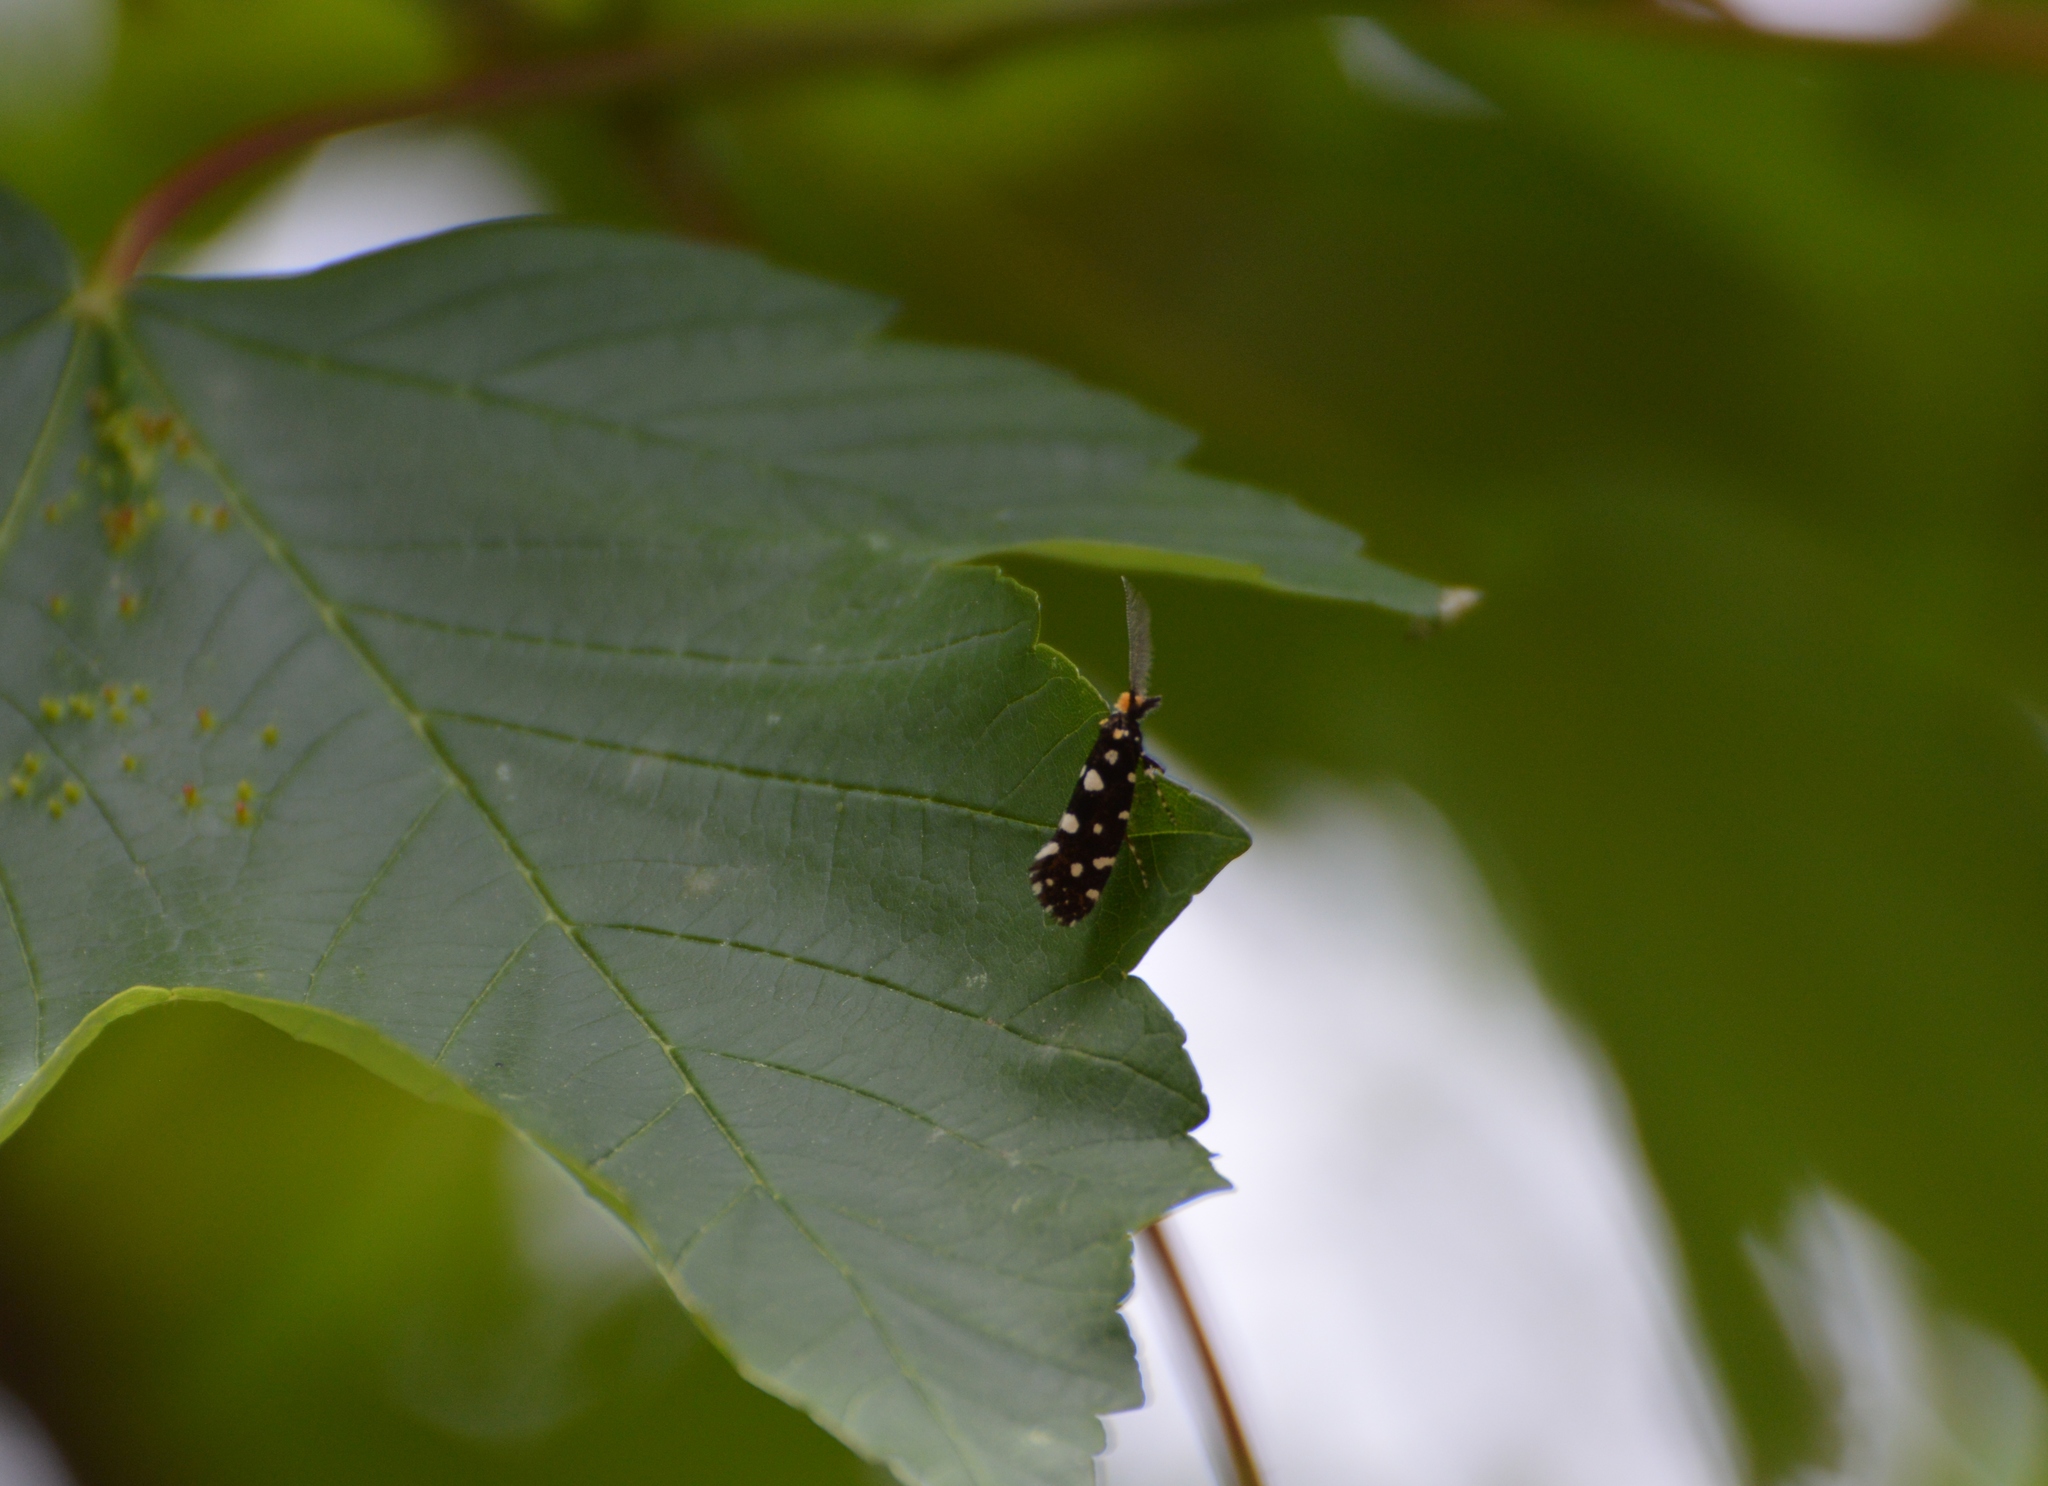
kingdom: Animalia
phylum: Arthropoda
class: Insecta
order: Lepidoptera
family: Tineidae
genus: Euplocamus
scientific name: Euplocamus anthracinalis
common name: Black clothes
